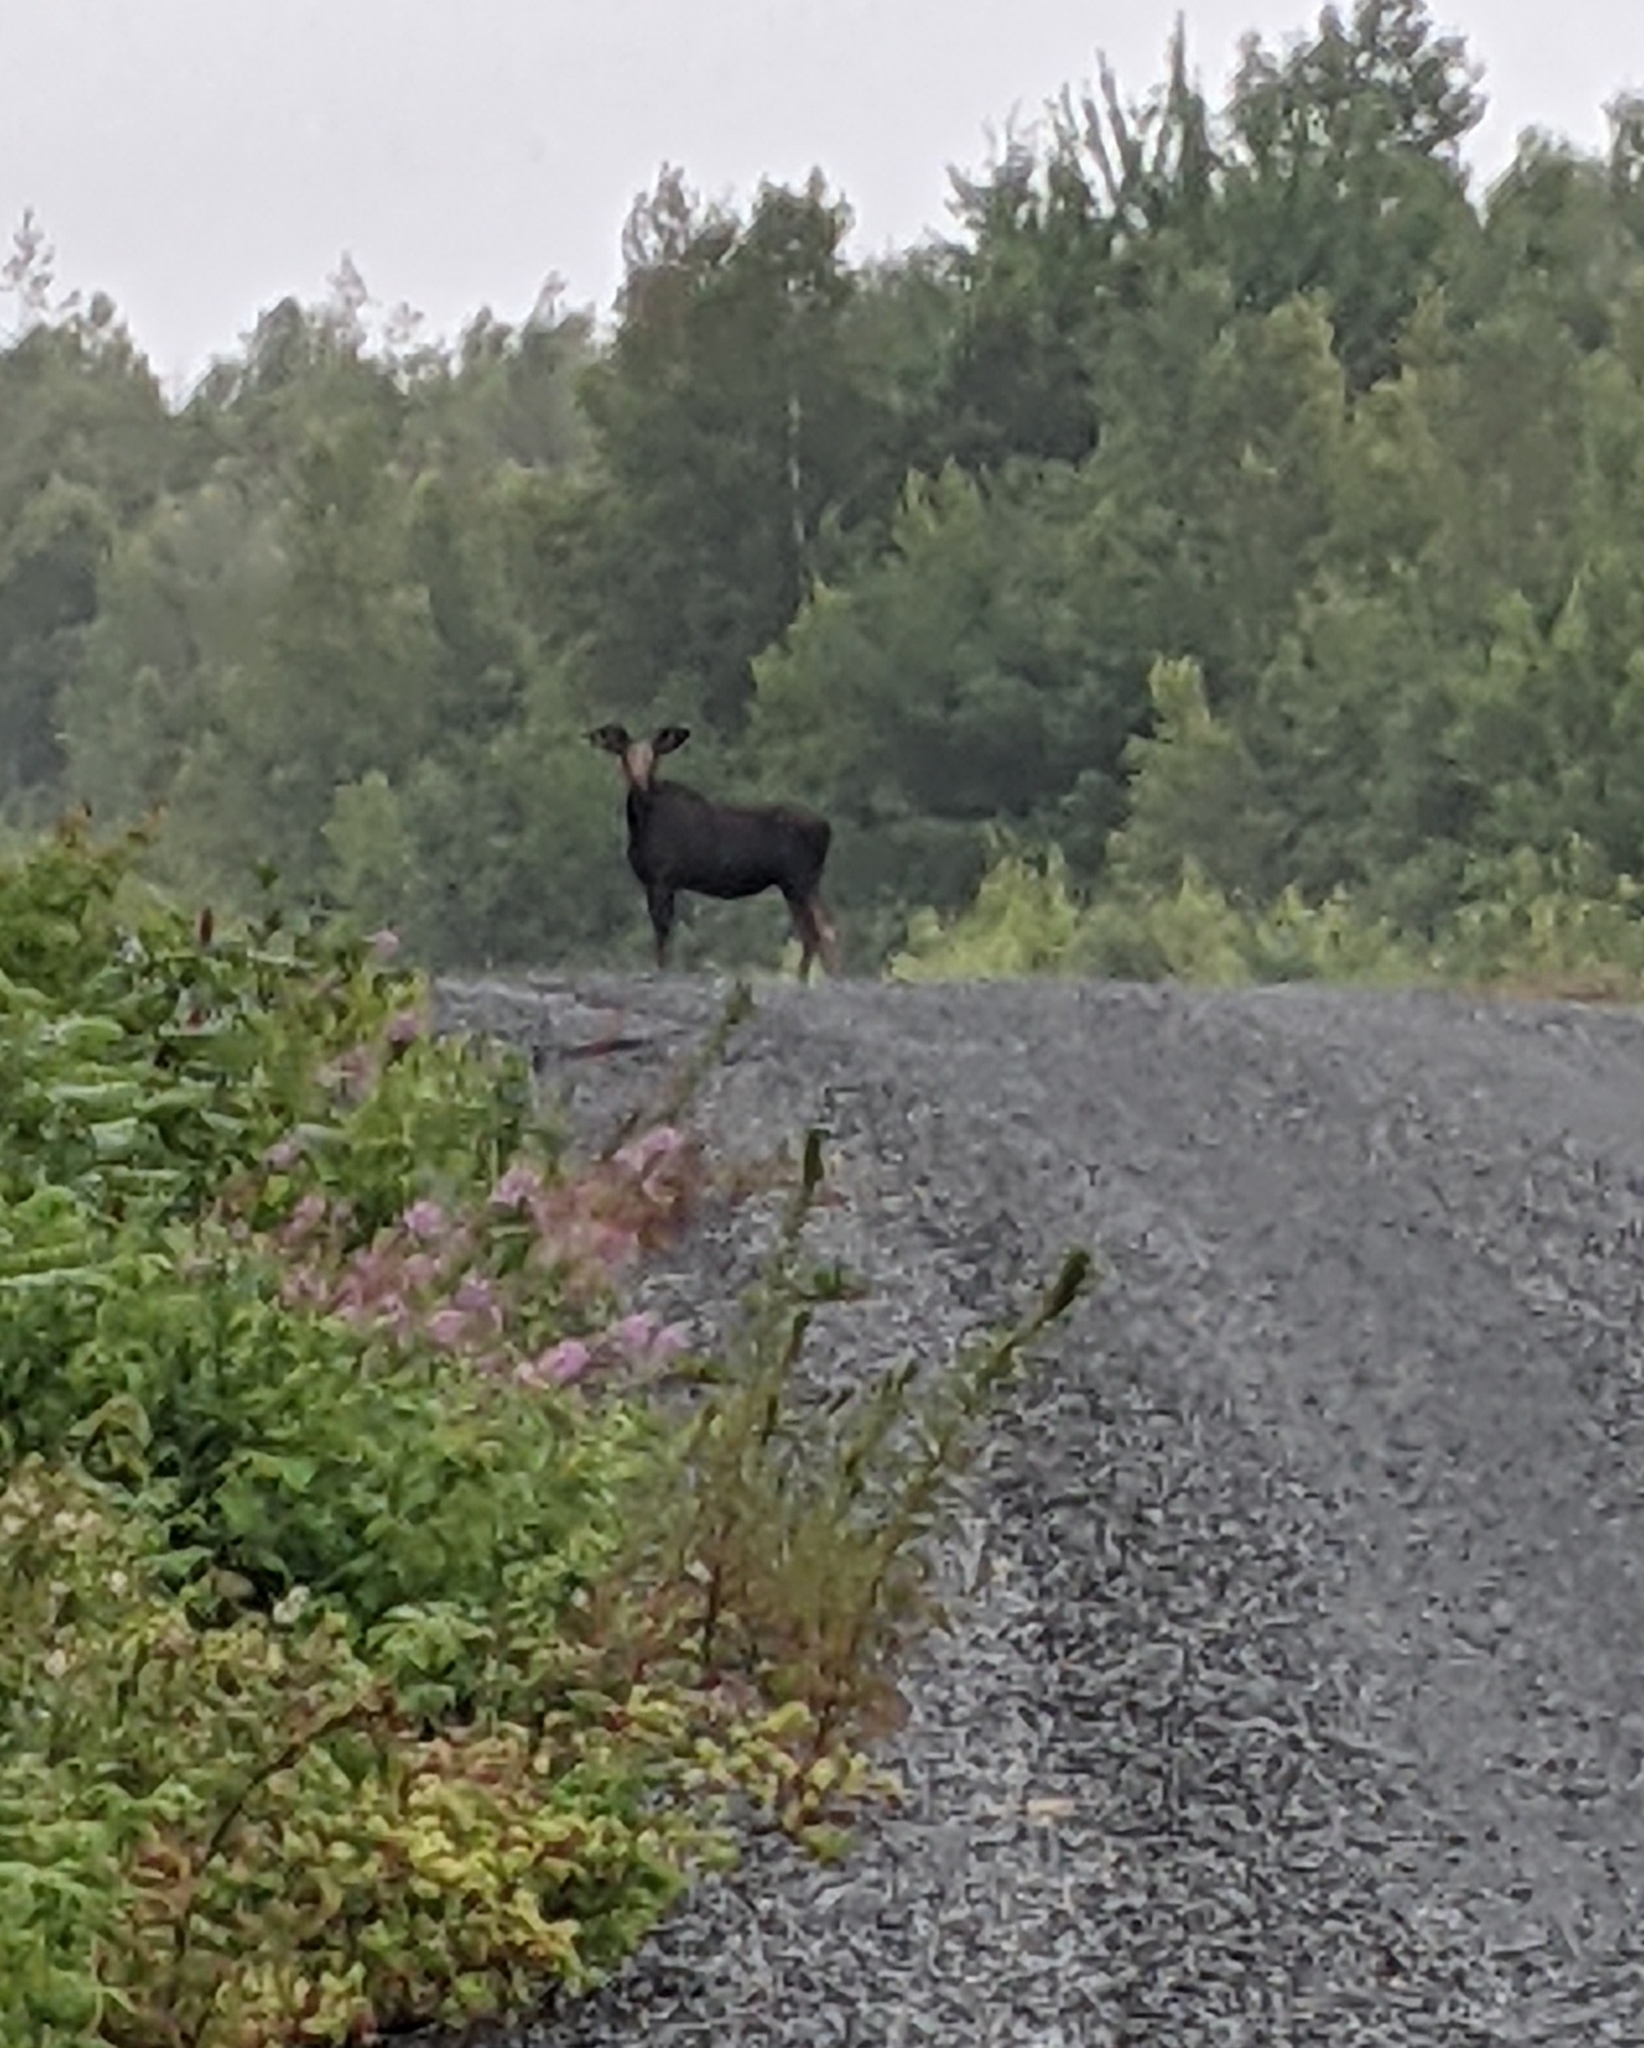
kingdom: Animalia
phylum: Chordata
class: Mammalia
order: Artiodactyla
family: Cervidae
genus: Alces
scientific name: Alces alces
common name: Moose
